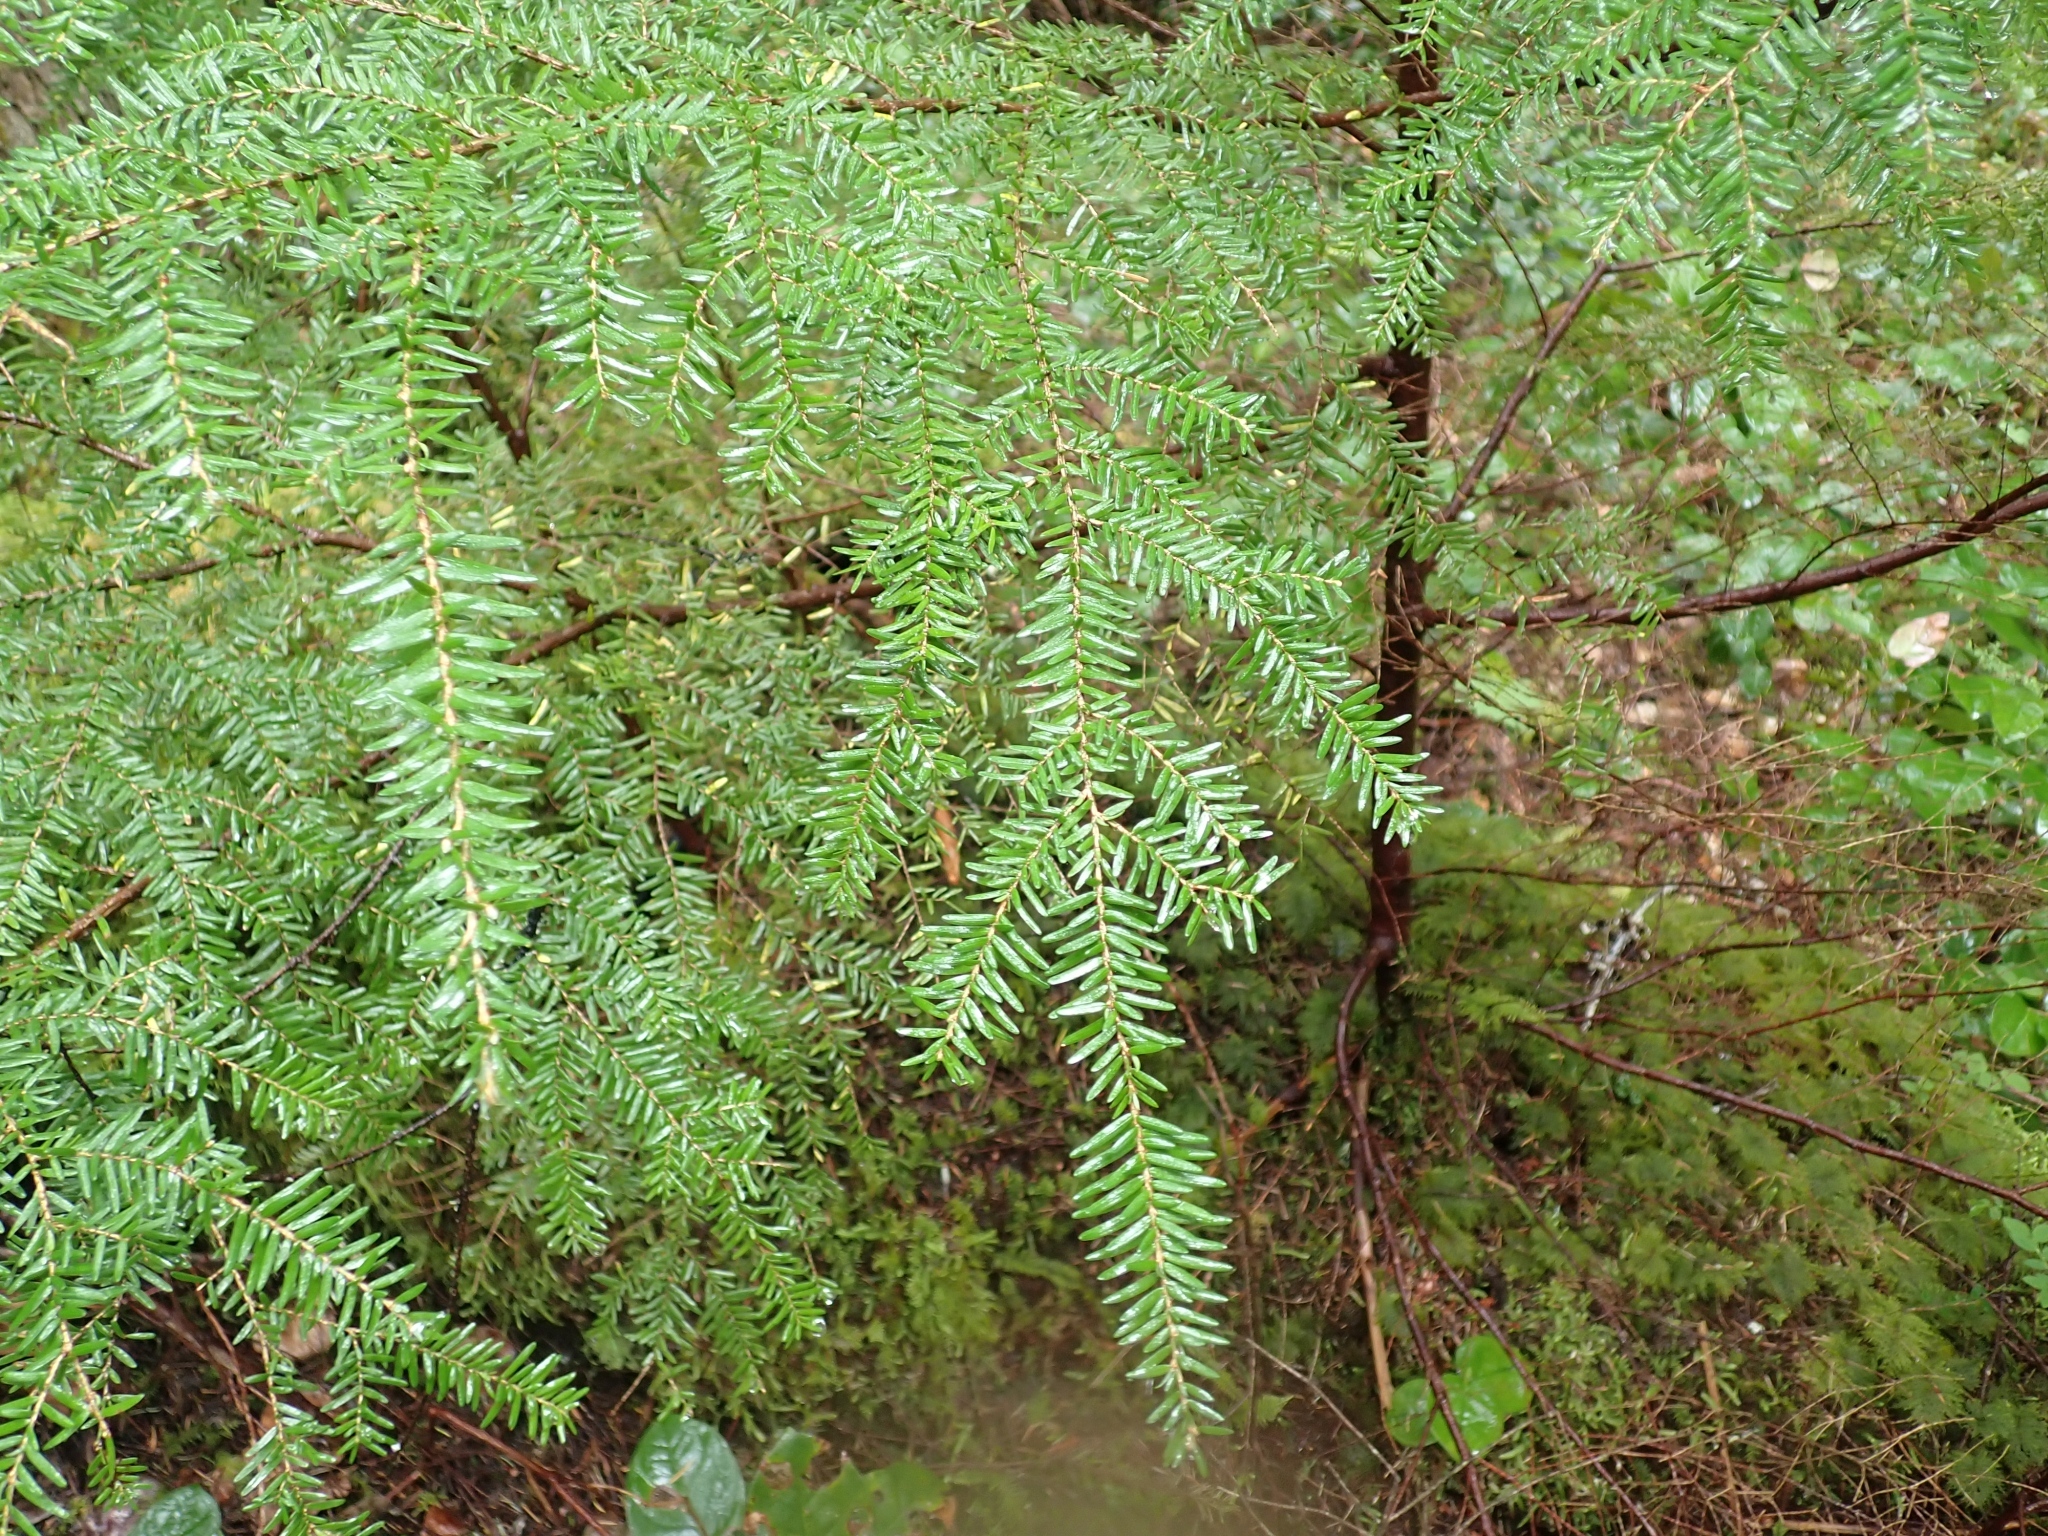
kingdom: Plantae
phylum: Tracheophyta
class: Pinopsida
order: Pinales
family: Pinaceae
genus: Tsuga
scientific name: Tsuga heterophylla
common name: Western hemlock
